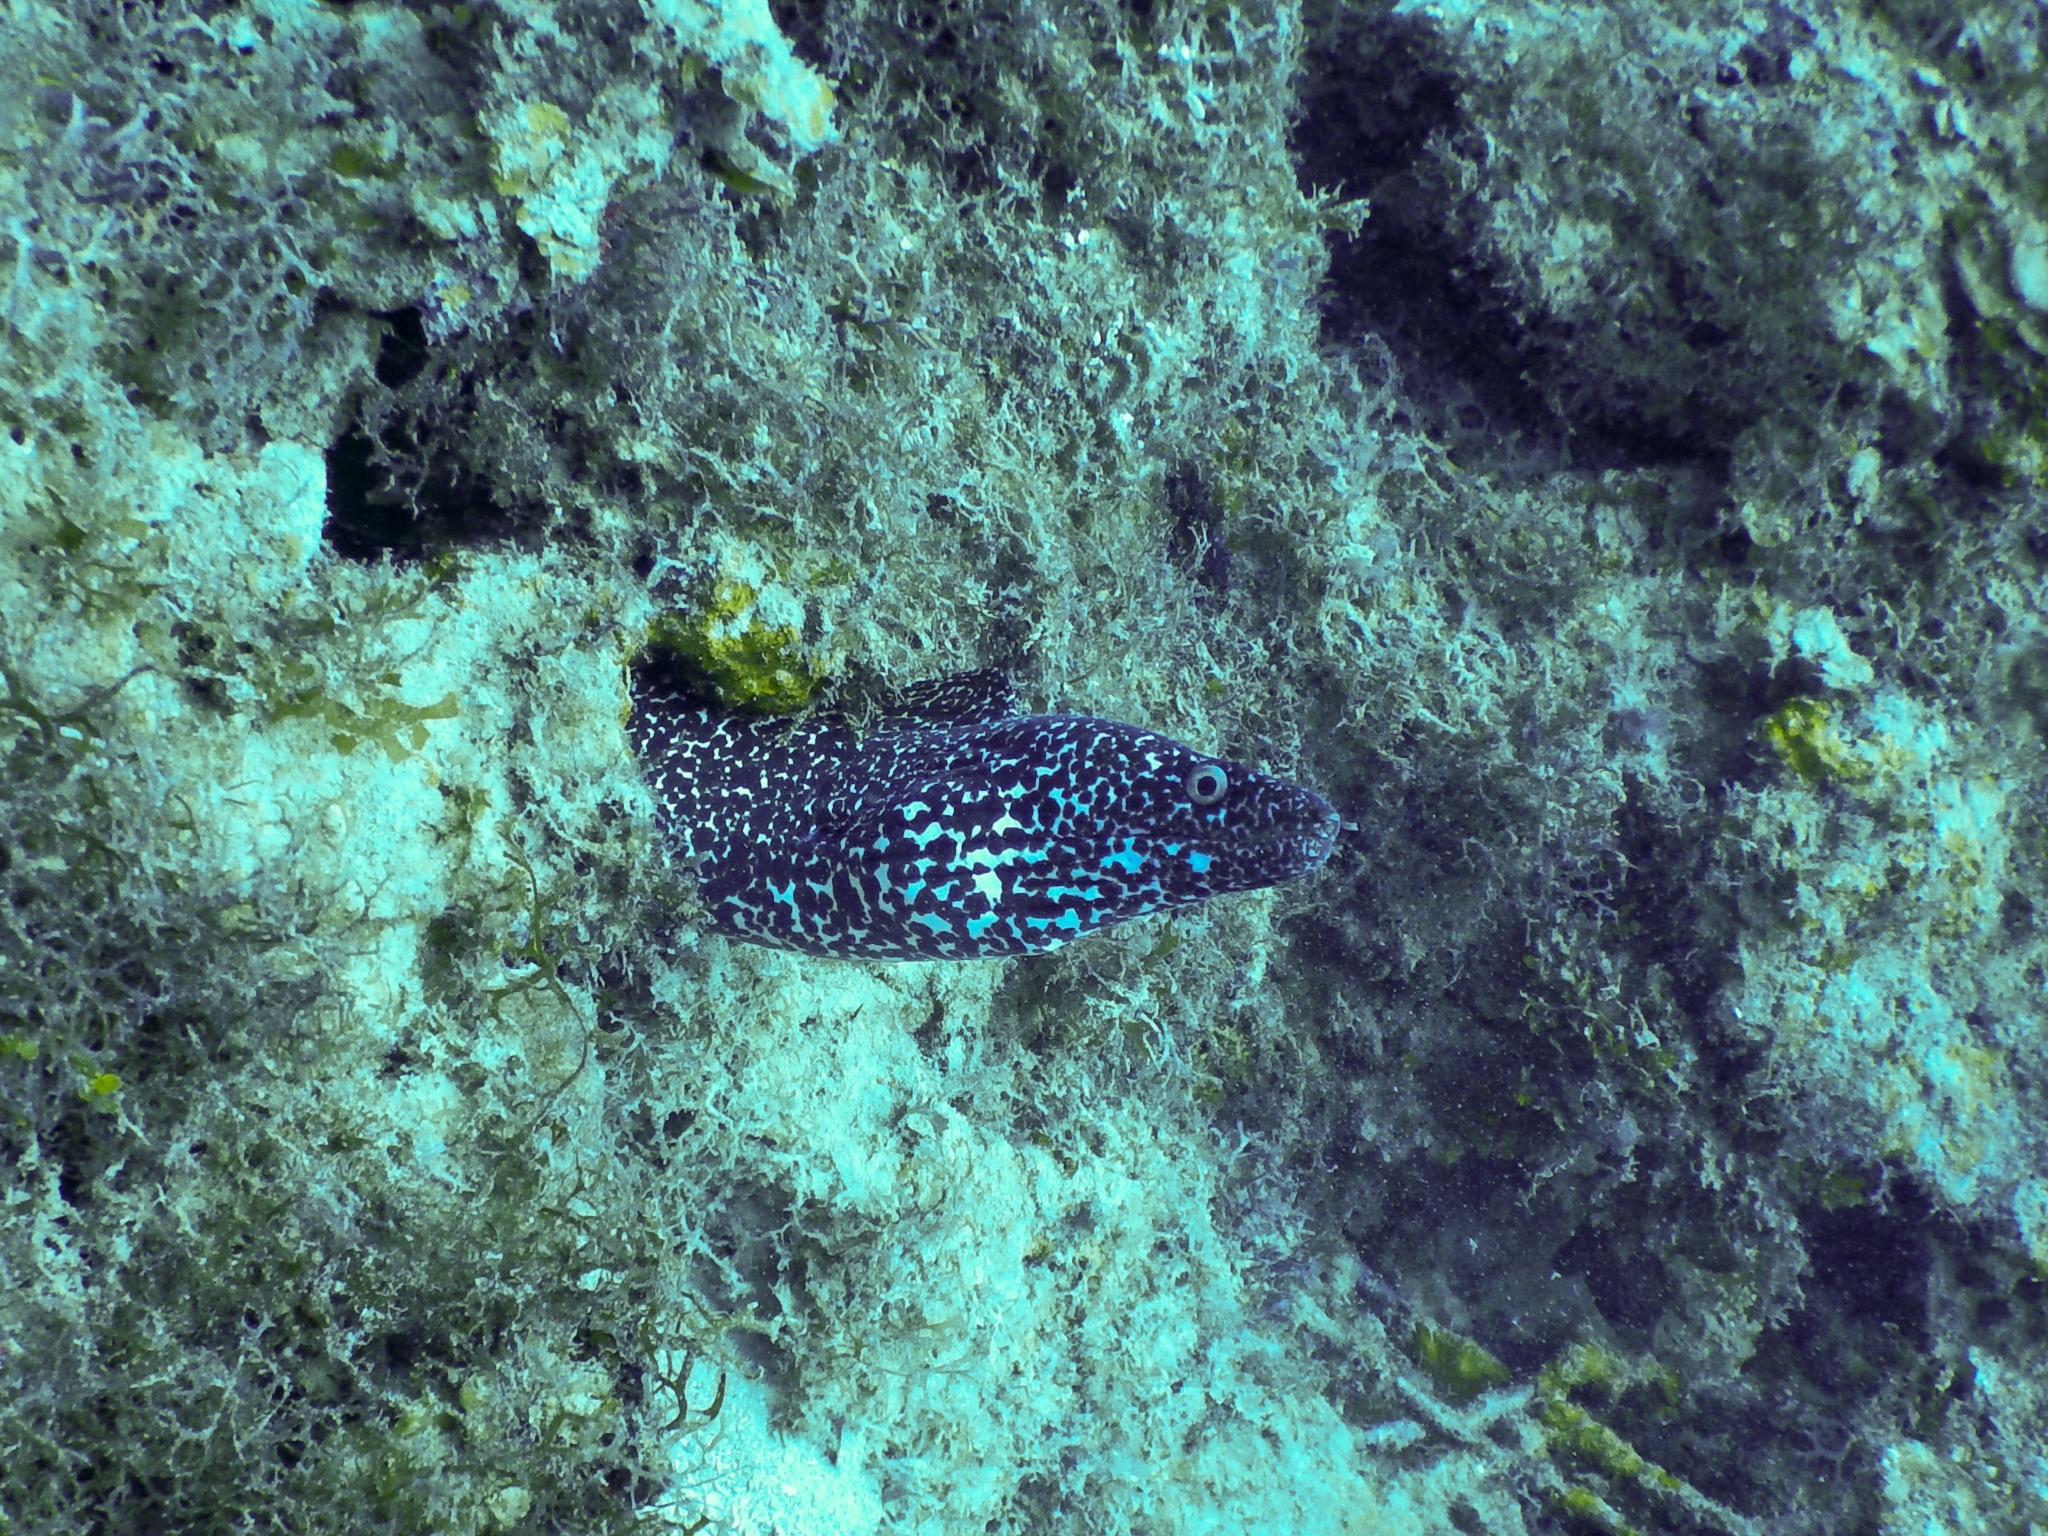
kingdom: Animalia
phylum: Chordata
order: Anguilliformes
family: Muraenidae
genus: Gymnothorax
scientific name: Gymnothorax moringa
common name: Spotted moray
